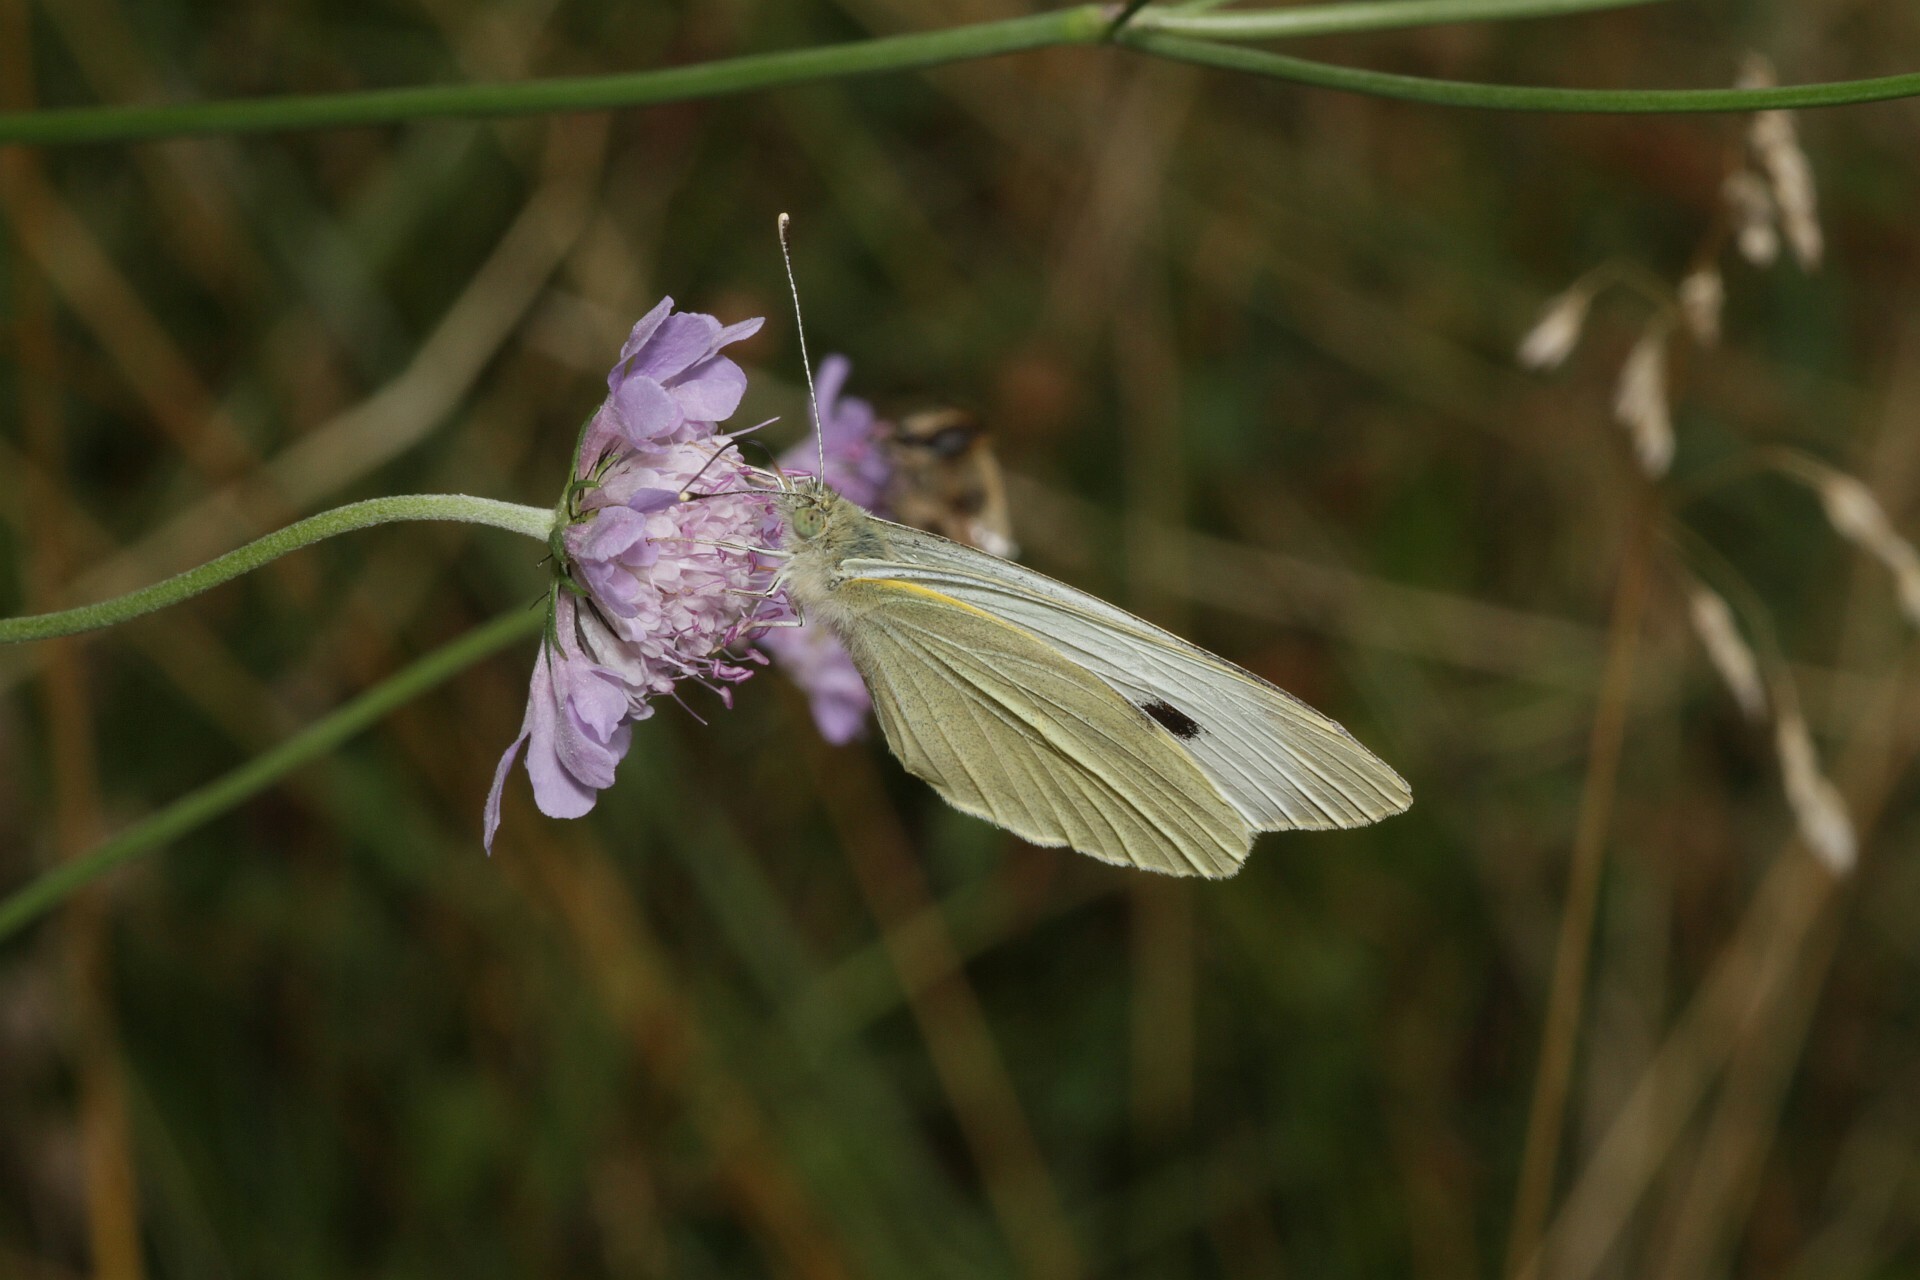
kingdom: Animalia
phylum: Arthropoda
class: Insecta
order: Lepidoptera
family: Pieridae
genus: Pieris
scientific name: Pieris brassicae
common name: Large white
